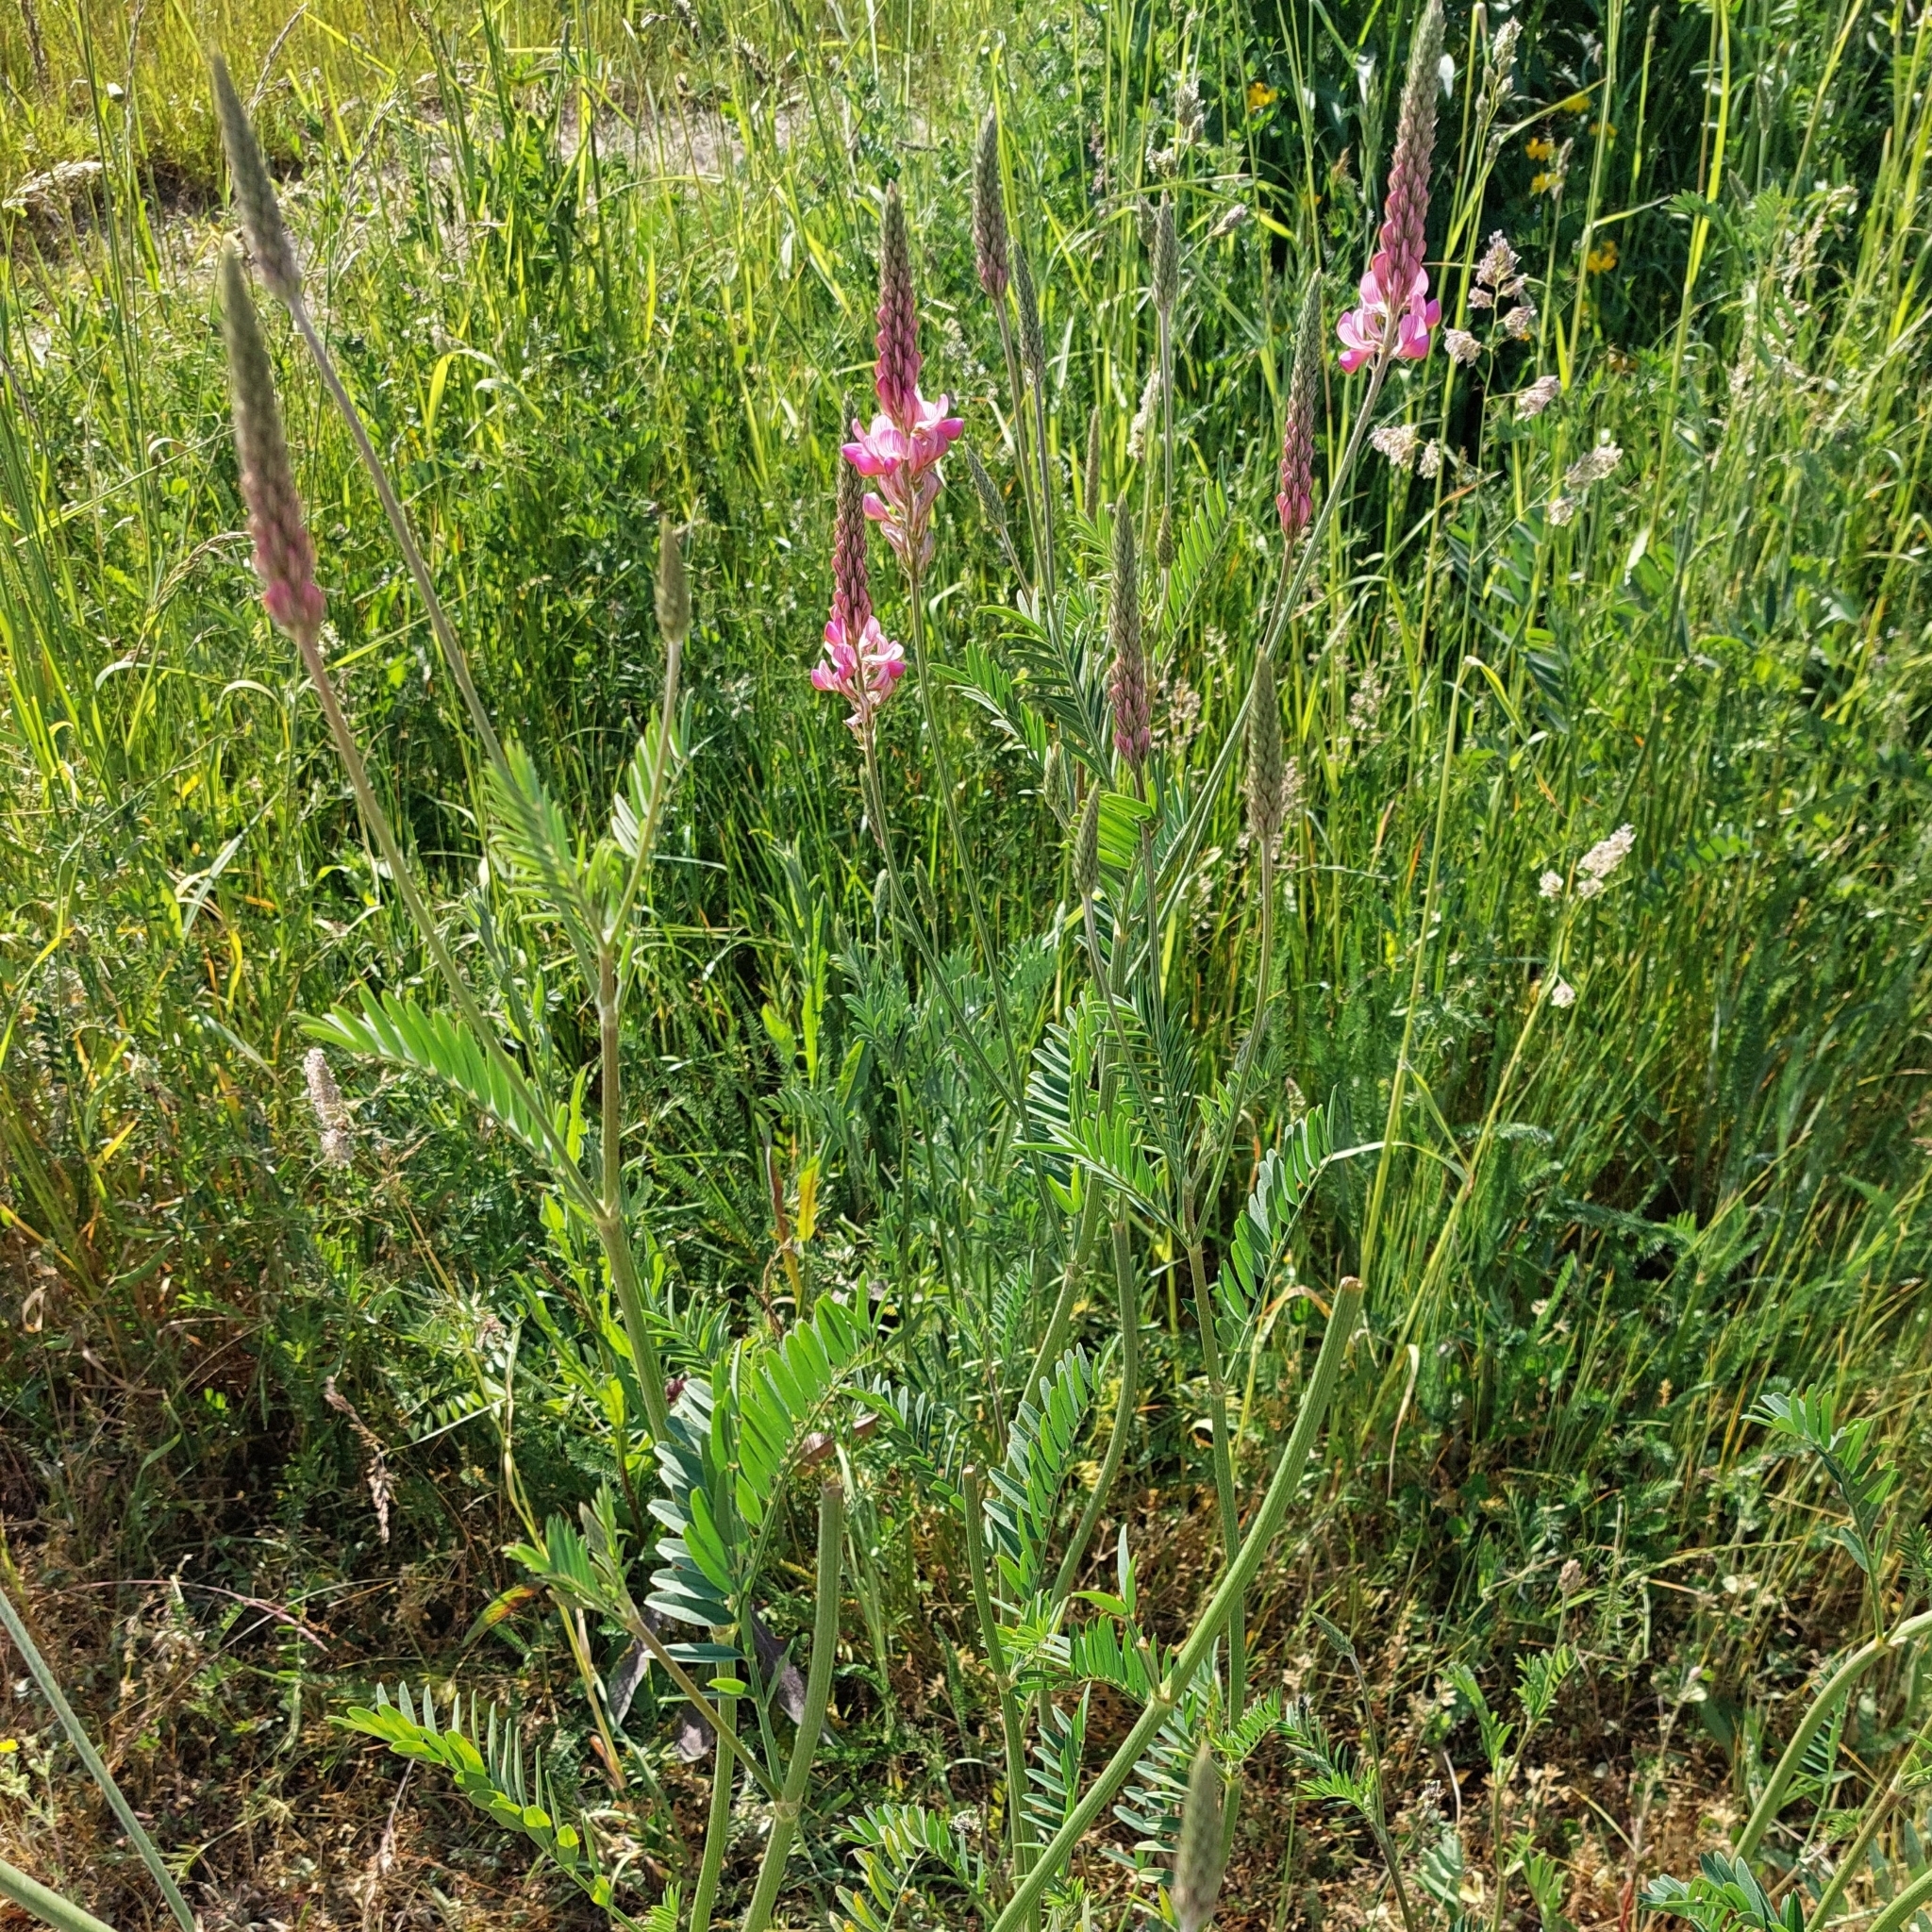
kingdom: Plantae
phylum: Tracheophyta
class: Magnoliopsida
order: Fabales
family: Fabaceae
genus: Onobrychis
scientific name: Onobrychis viciifolia
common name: Sainfoin
